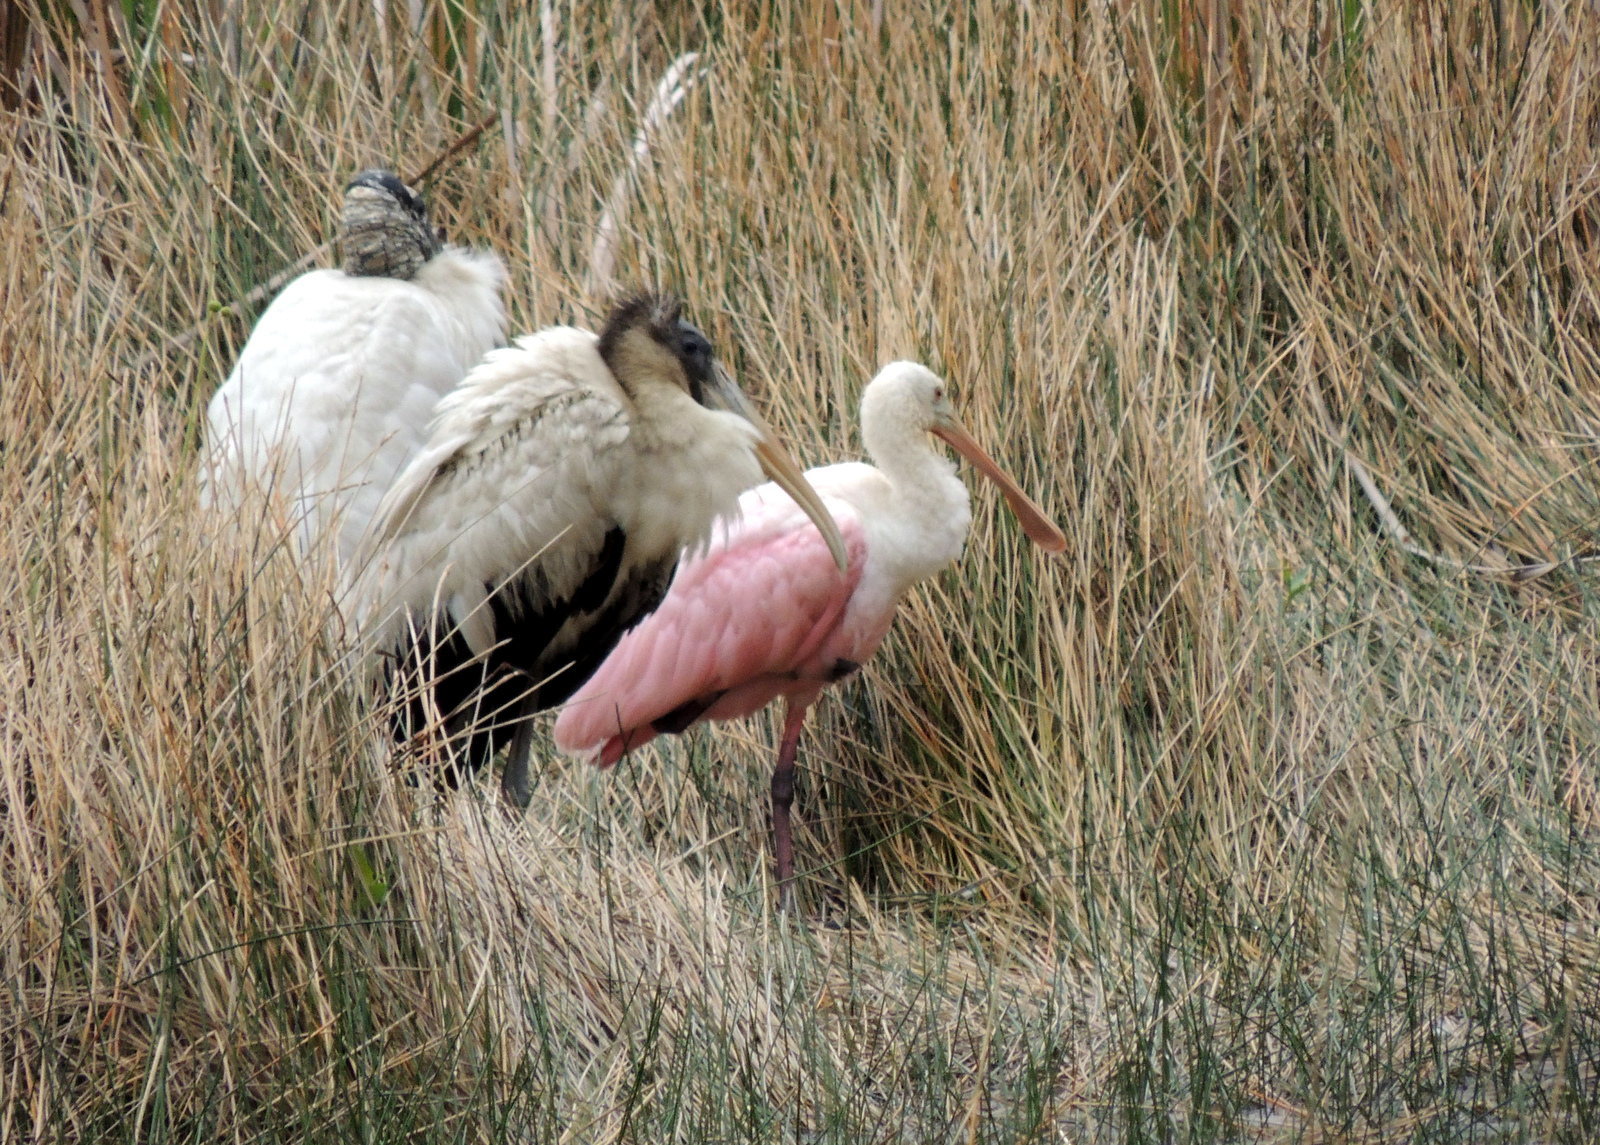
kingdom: Animalia
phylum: Chordata
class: Aves
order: Pelecaniformes
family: Threskiornithidae
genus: Platalea
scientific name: Platalea ajaja
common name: Roseate spoonbill
